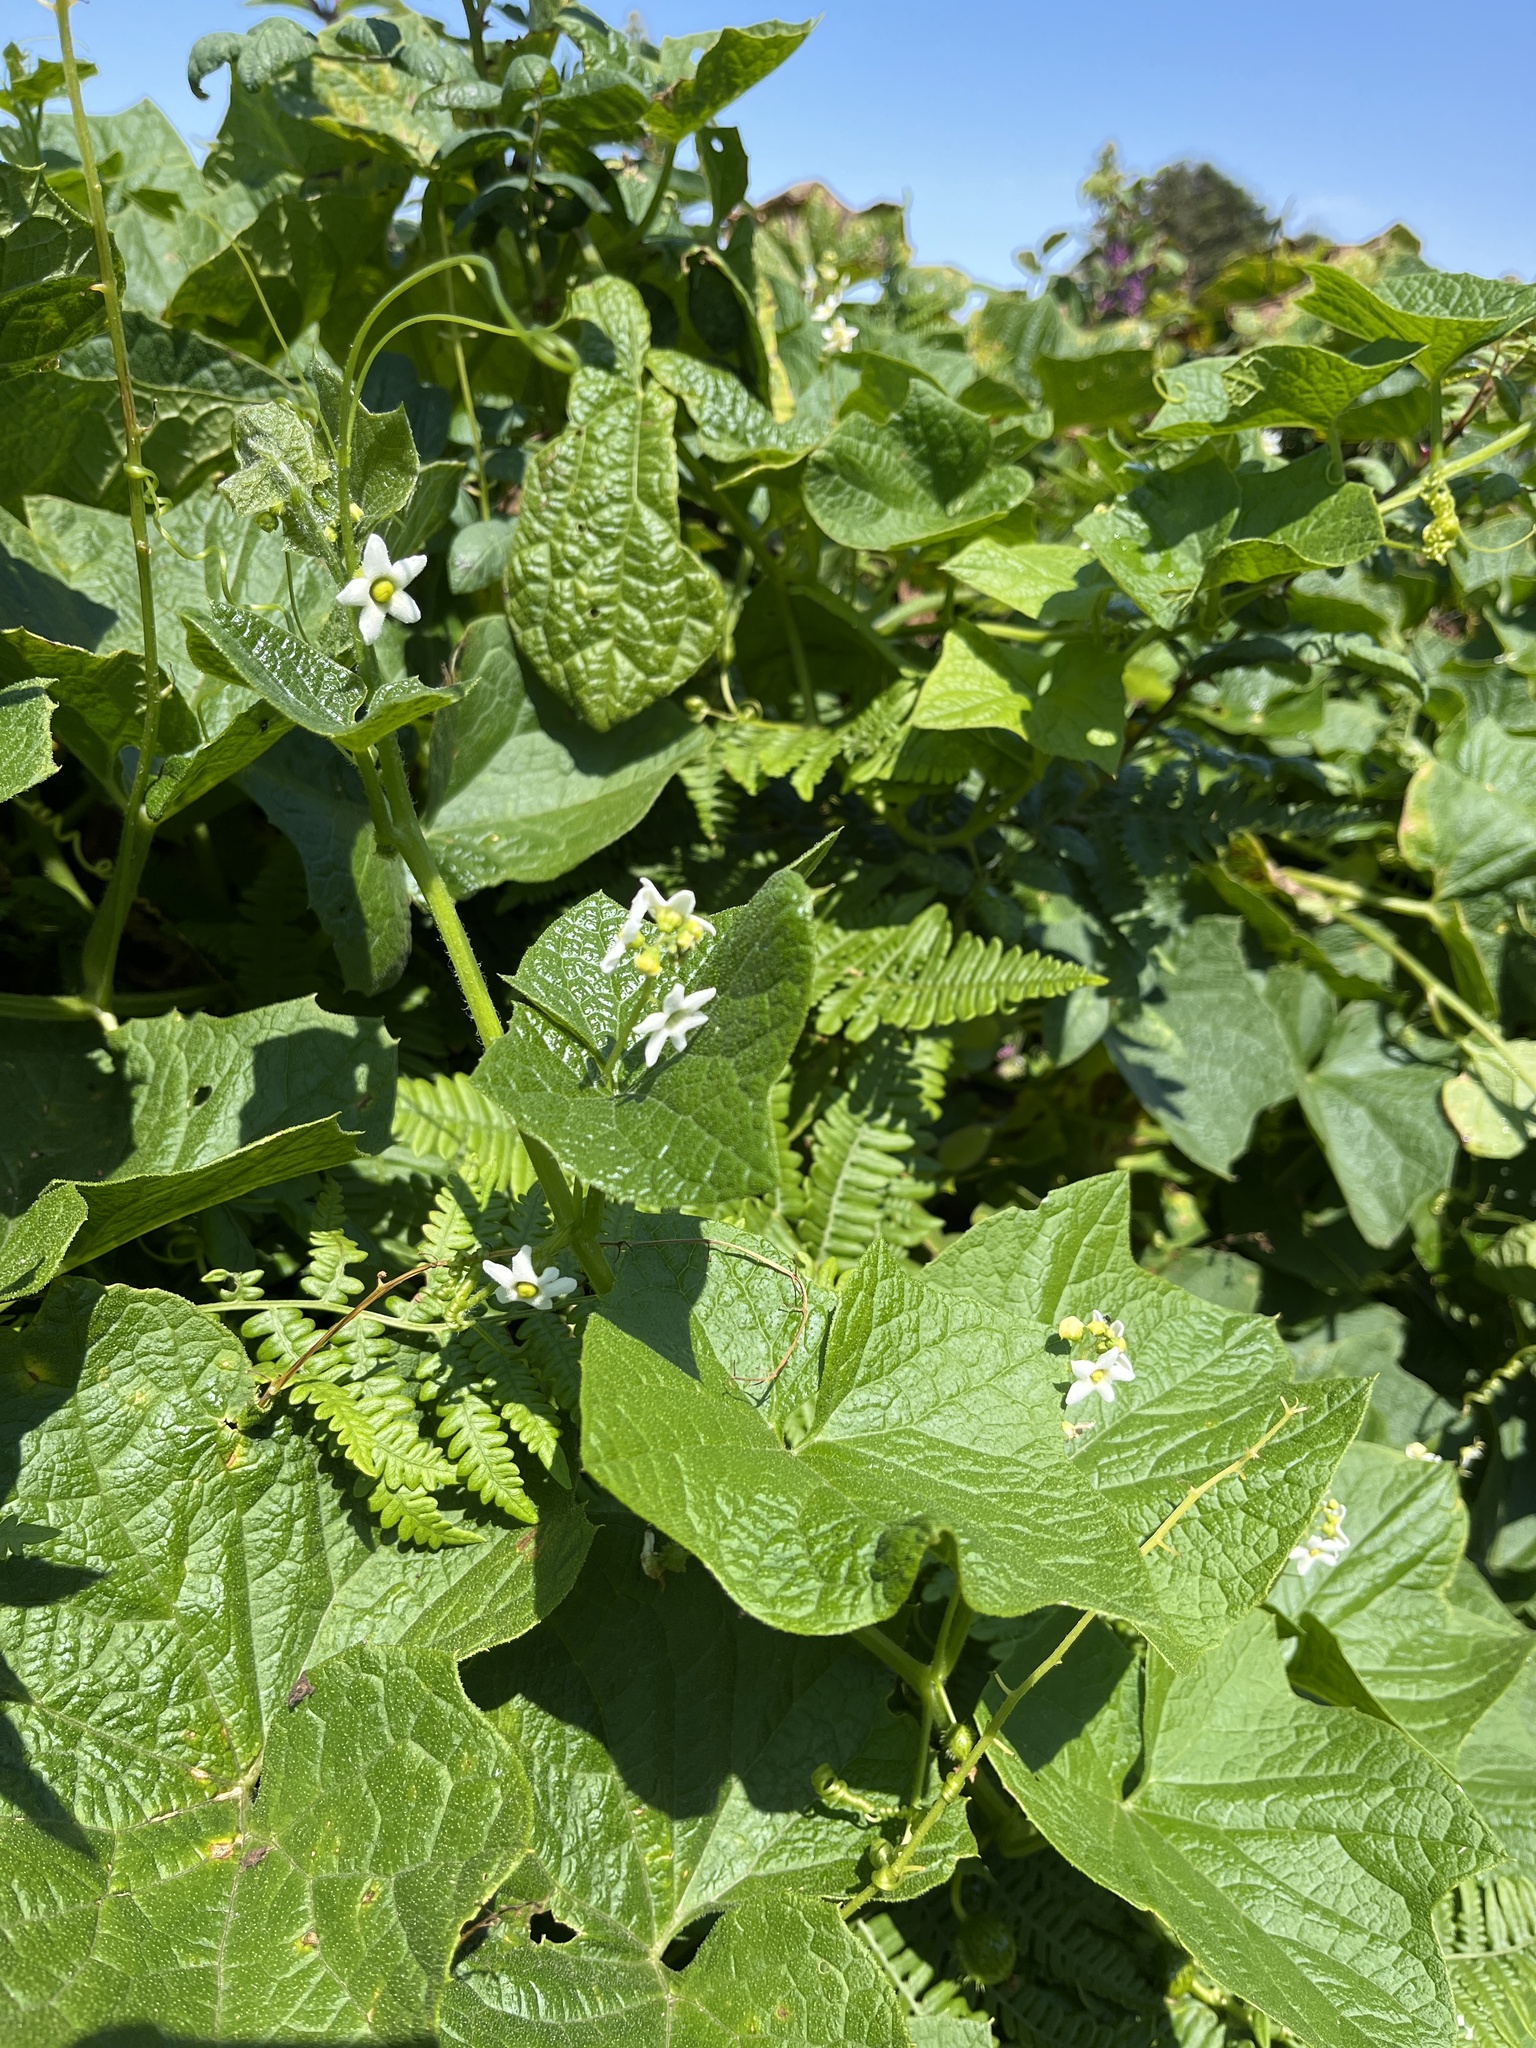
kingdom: Plantae
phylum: Tracheophyta
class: Magnoliopsida
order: Cucurbitales
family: Cucurbitaceae
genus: Marah
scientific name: Marah oregana
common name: Coastal manroot
